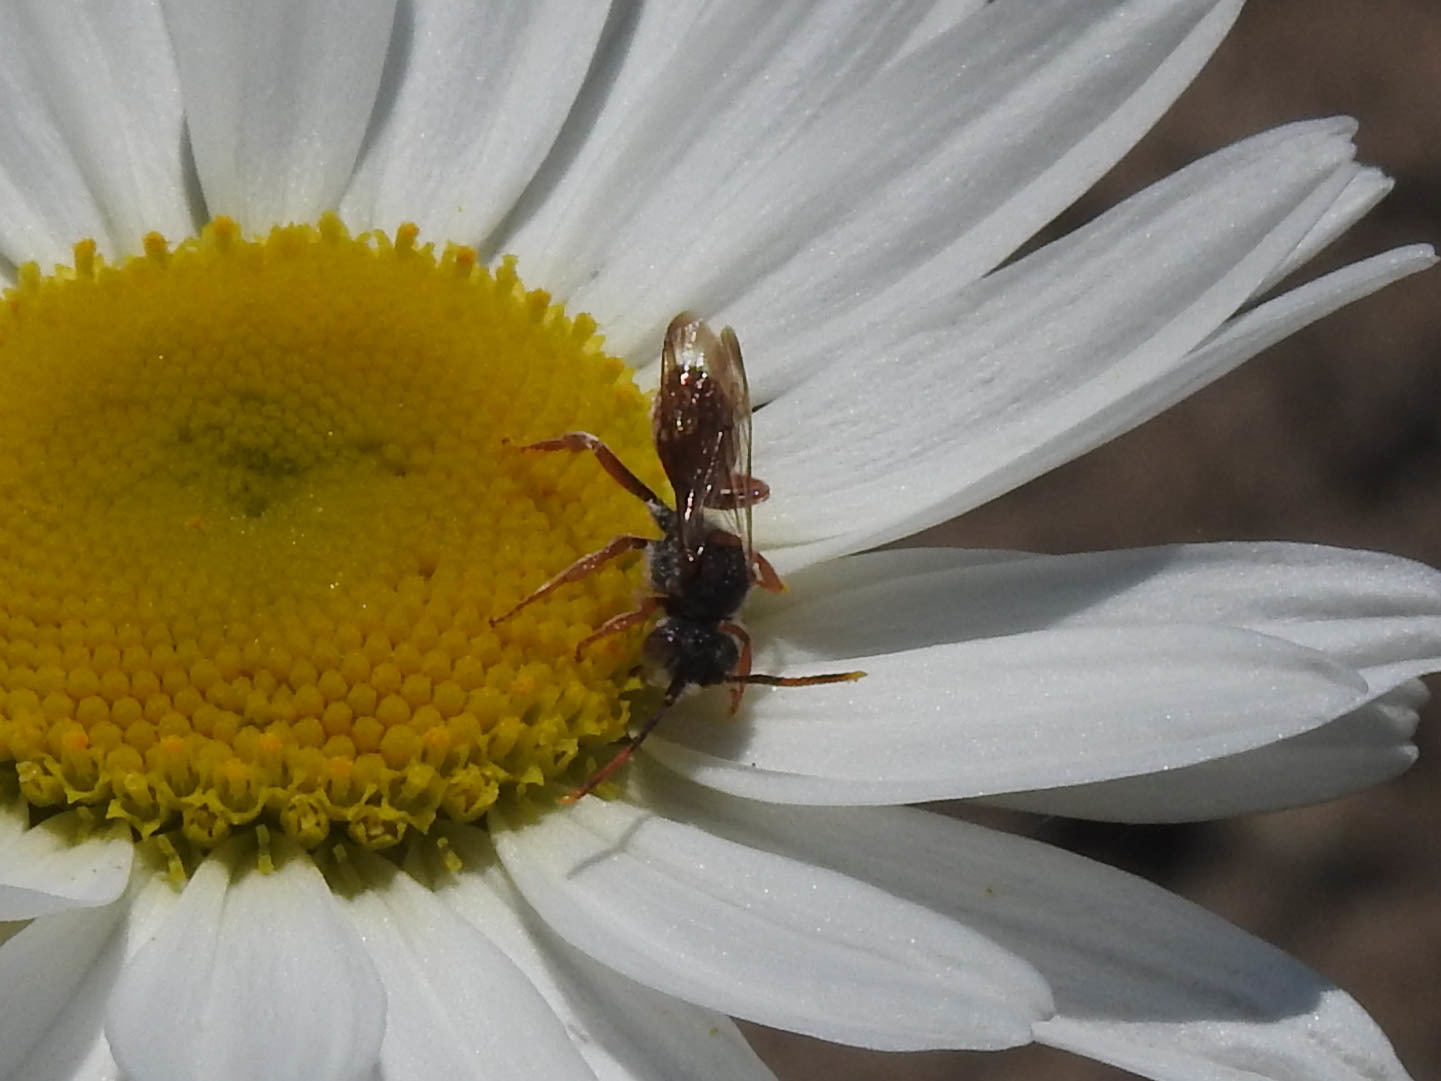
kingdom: Animalia
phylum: Arthropoda
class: Insecta
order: Hymenoptera
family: Apidae
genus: Nomada
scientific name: Nomada
